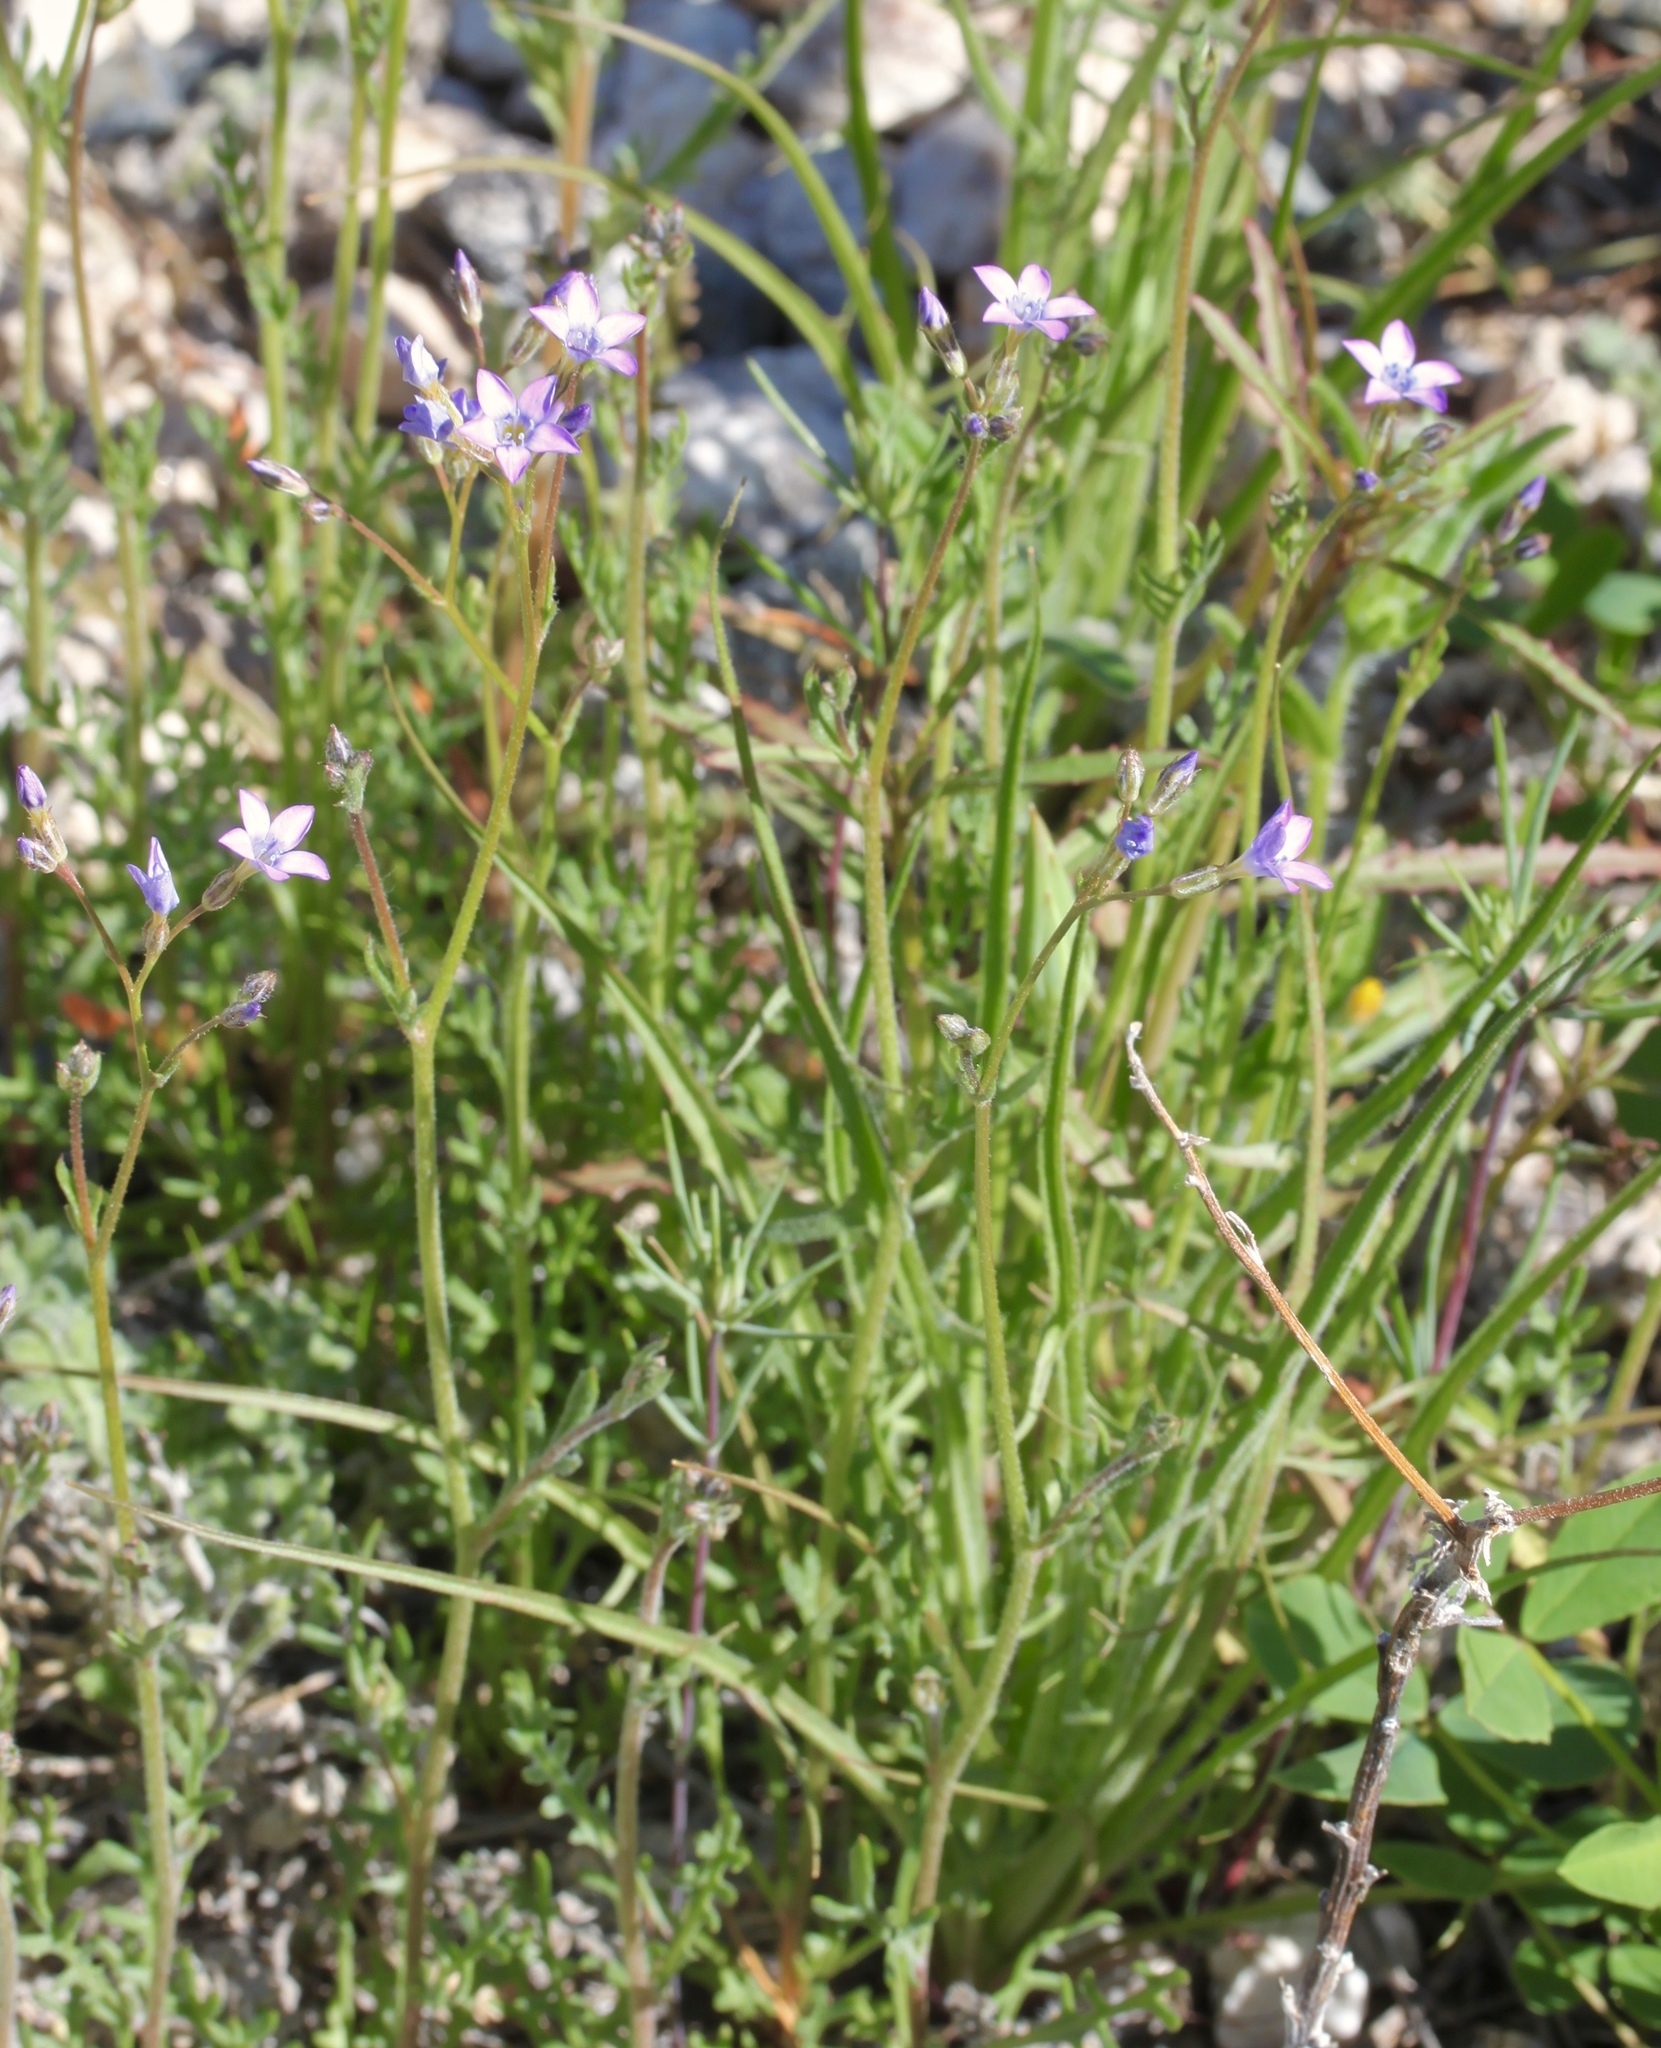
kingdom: Plantae
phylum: Tracheophyta
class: Magnoliopsida
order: Ericales
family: Polemoniaceae
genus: Gilia
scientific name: Gilia lyndana
